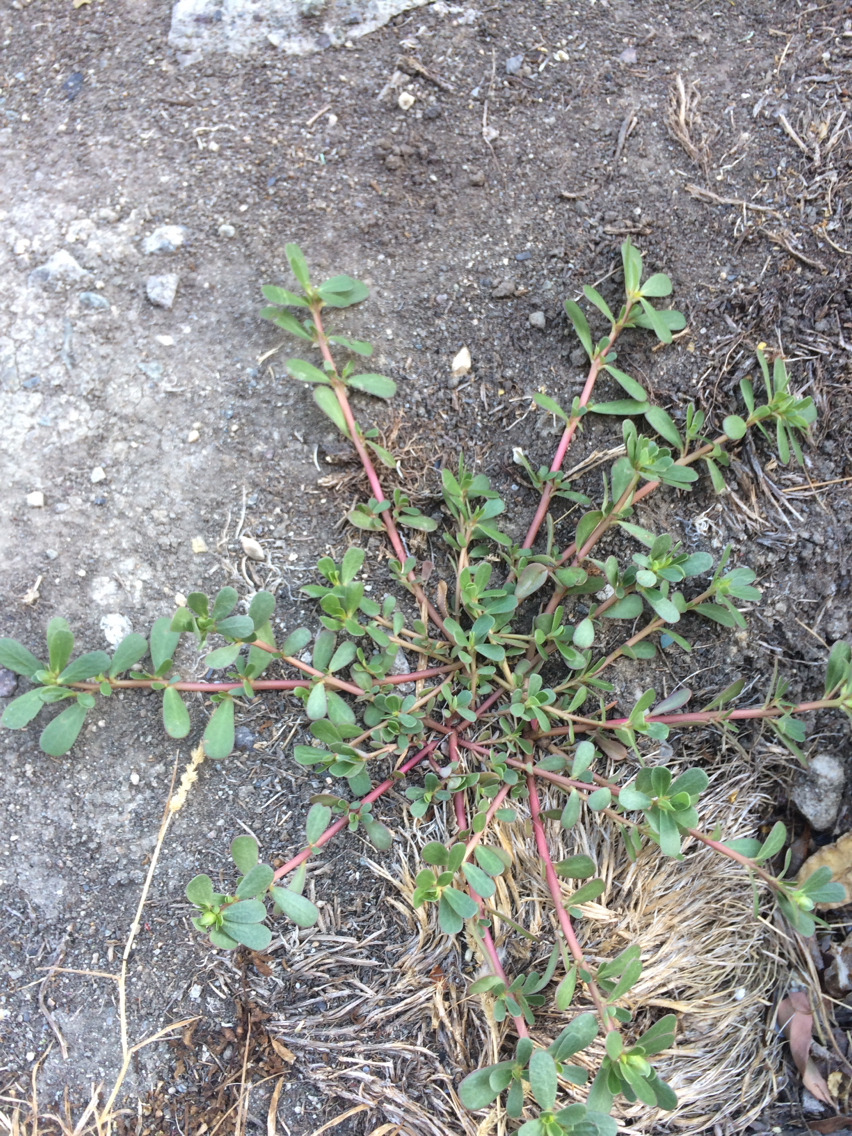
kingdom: Plantae
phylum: Tracheophyta
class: Magnoliopsida
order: Caryophyllales
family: Portulacaceae
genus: Portulaca
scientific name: Portulaca oleracea
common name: Common purslane
